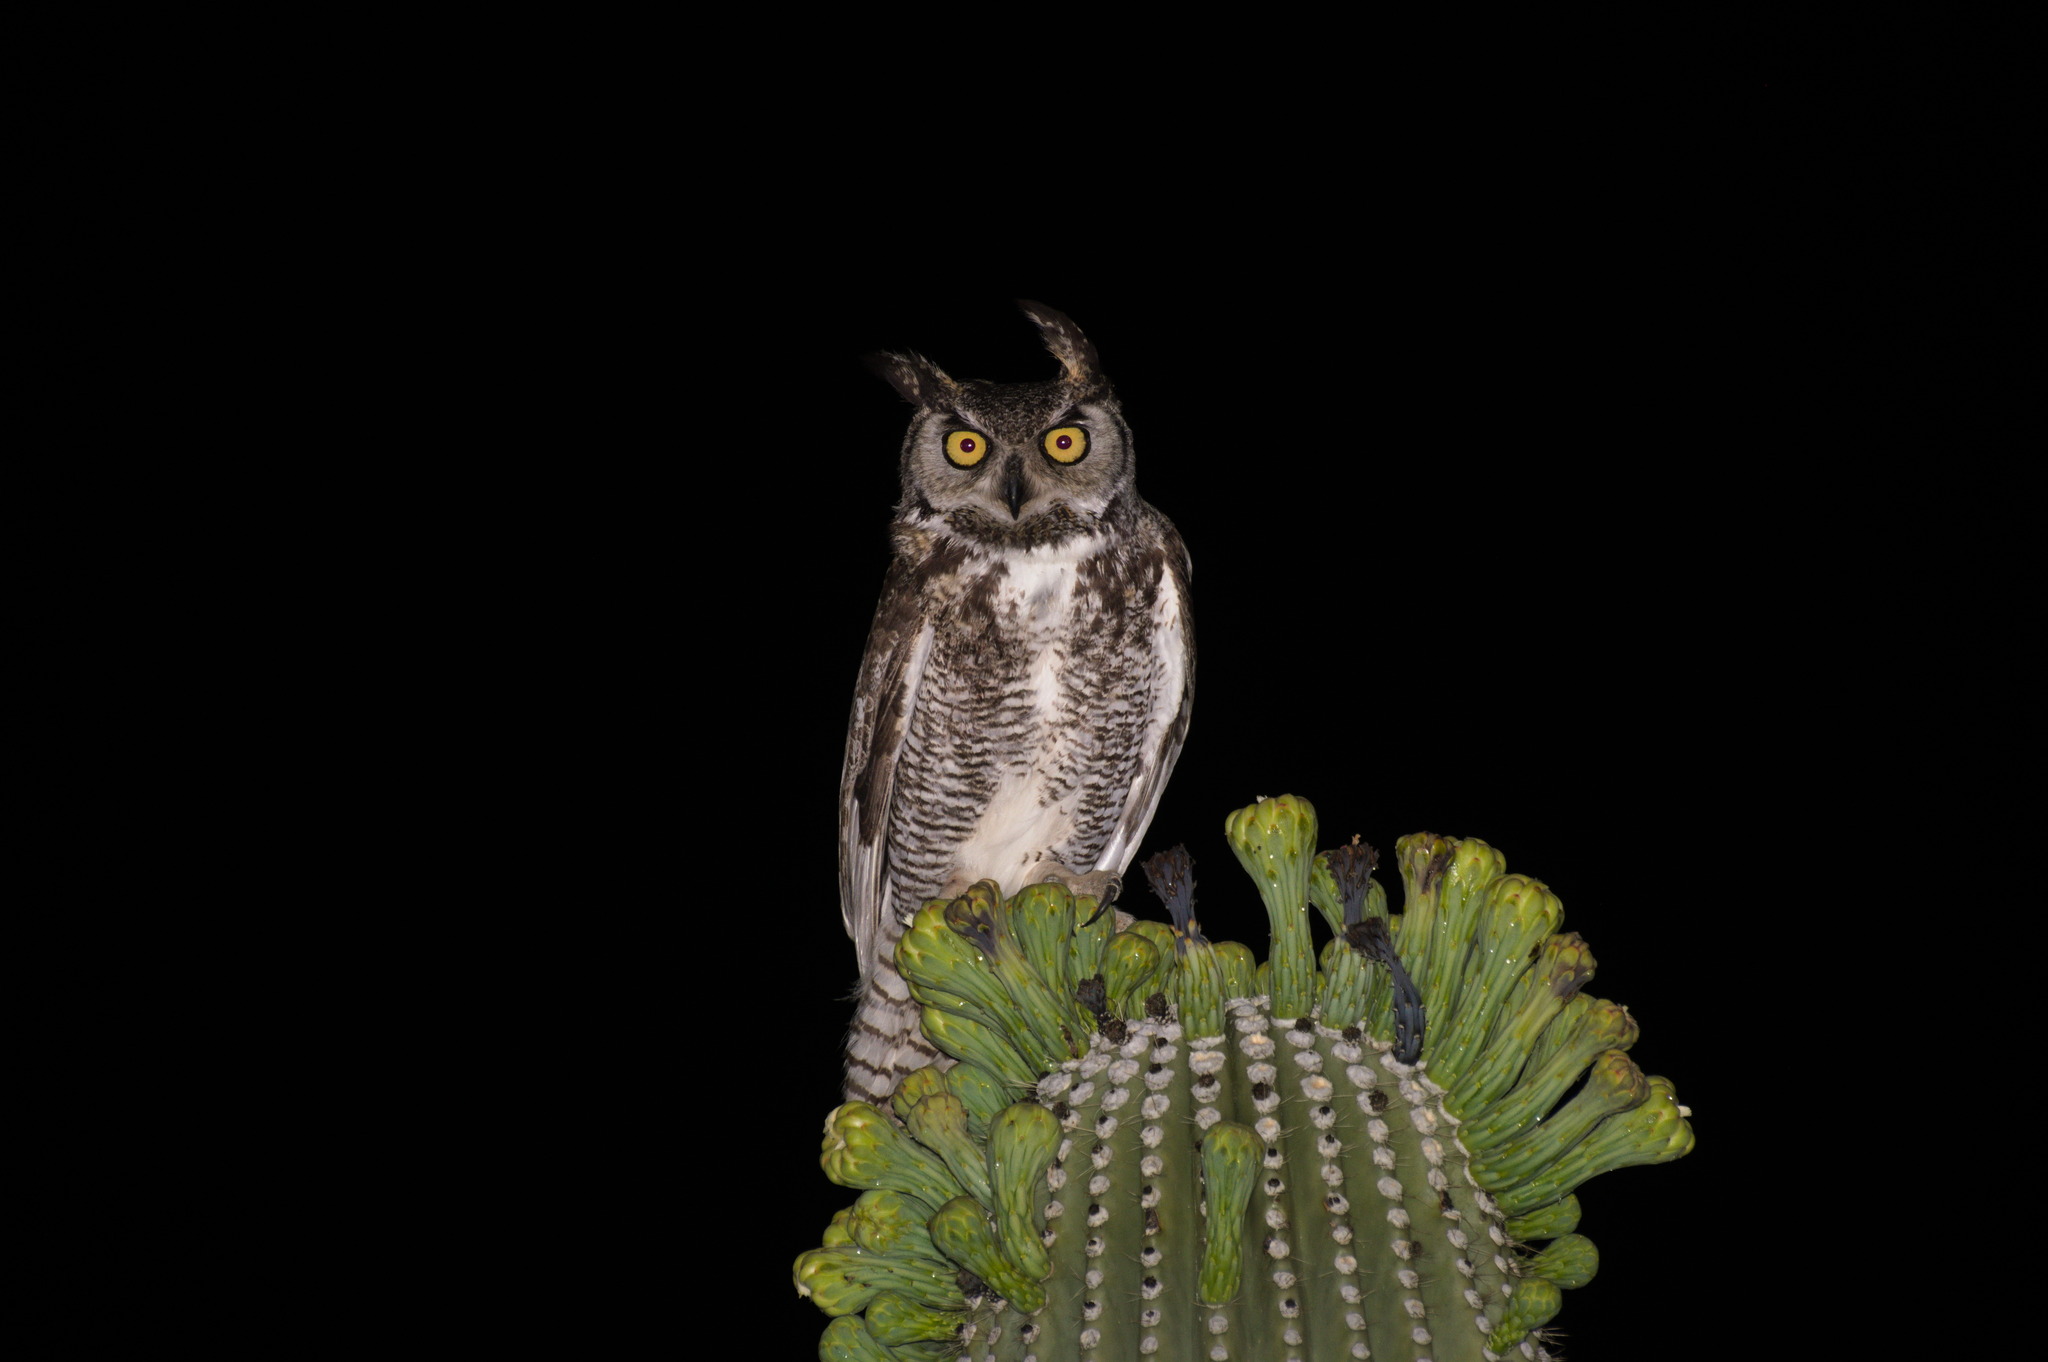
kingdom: Animalia
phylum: Chordata
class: Aves
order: Strigiformes
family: Strigidae
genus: Bubo
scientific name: Bubo virginianus
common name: Great horned owl
